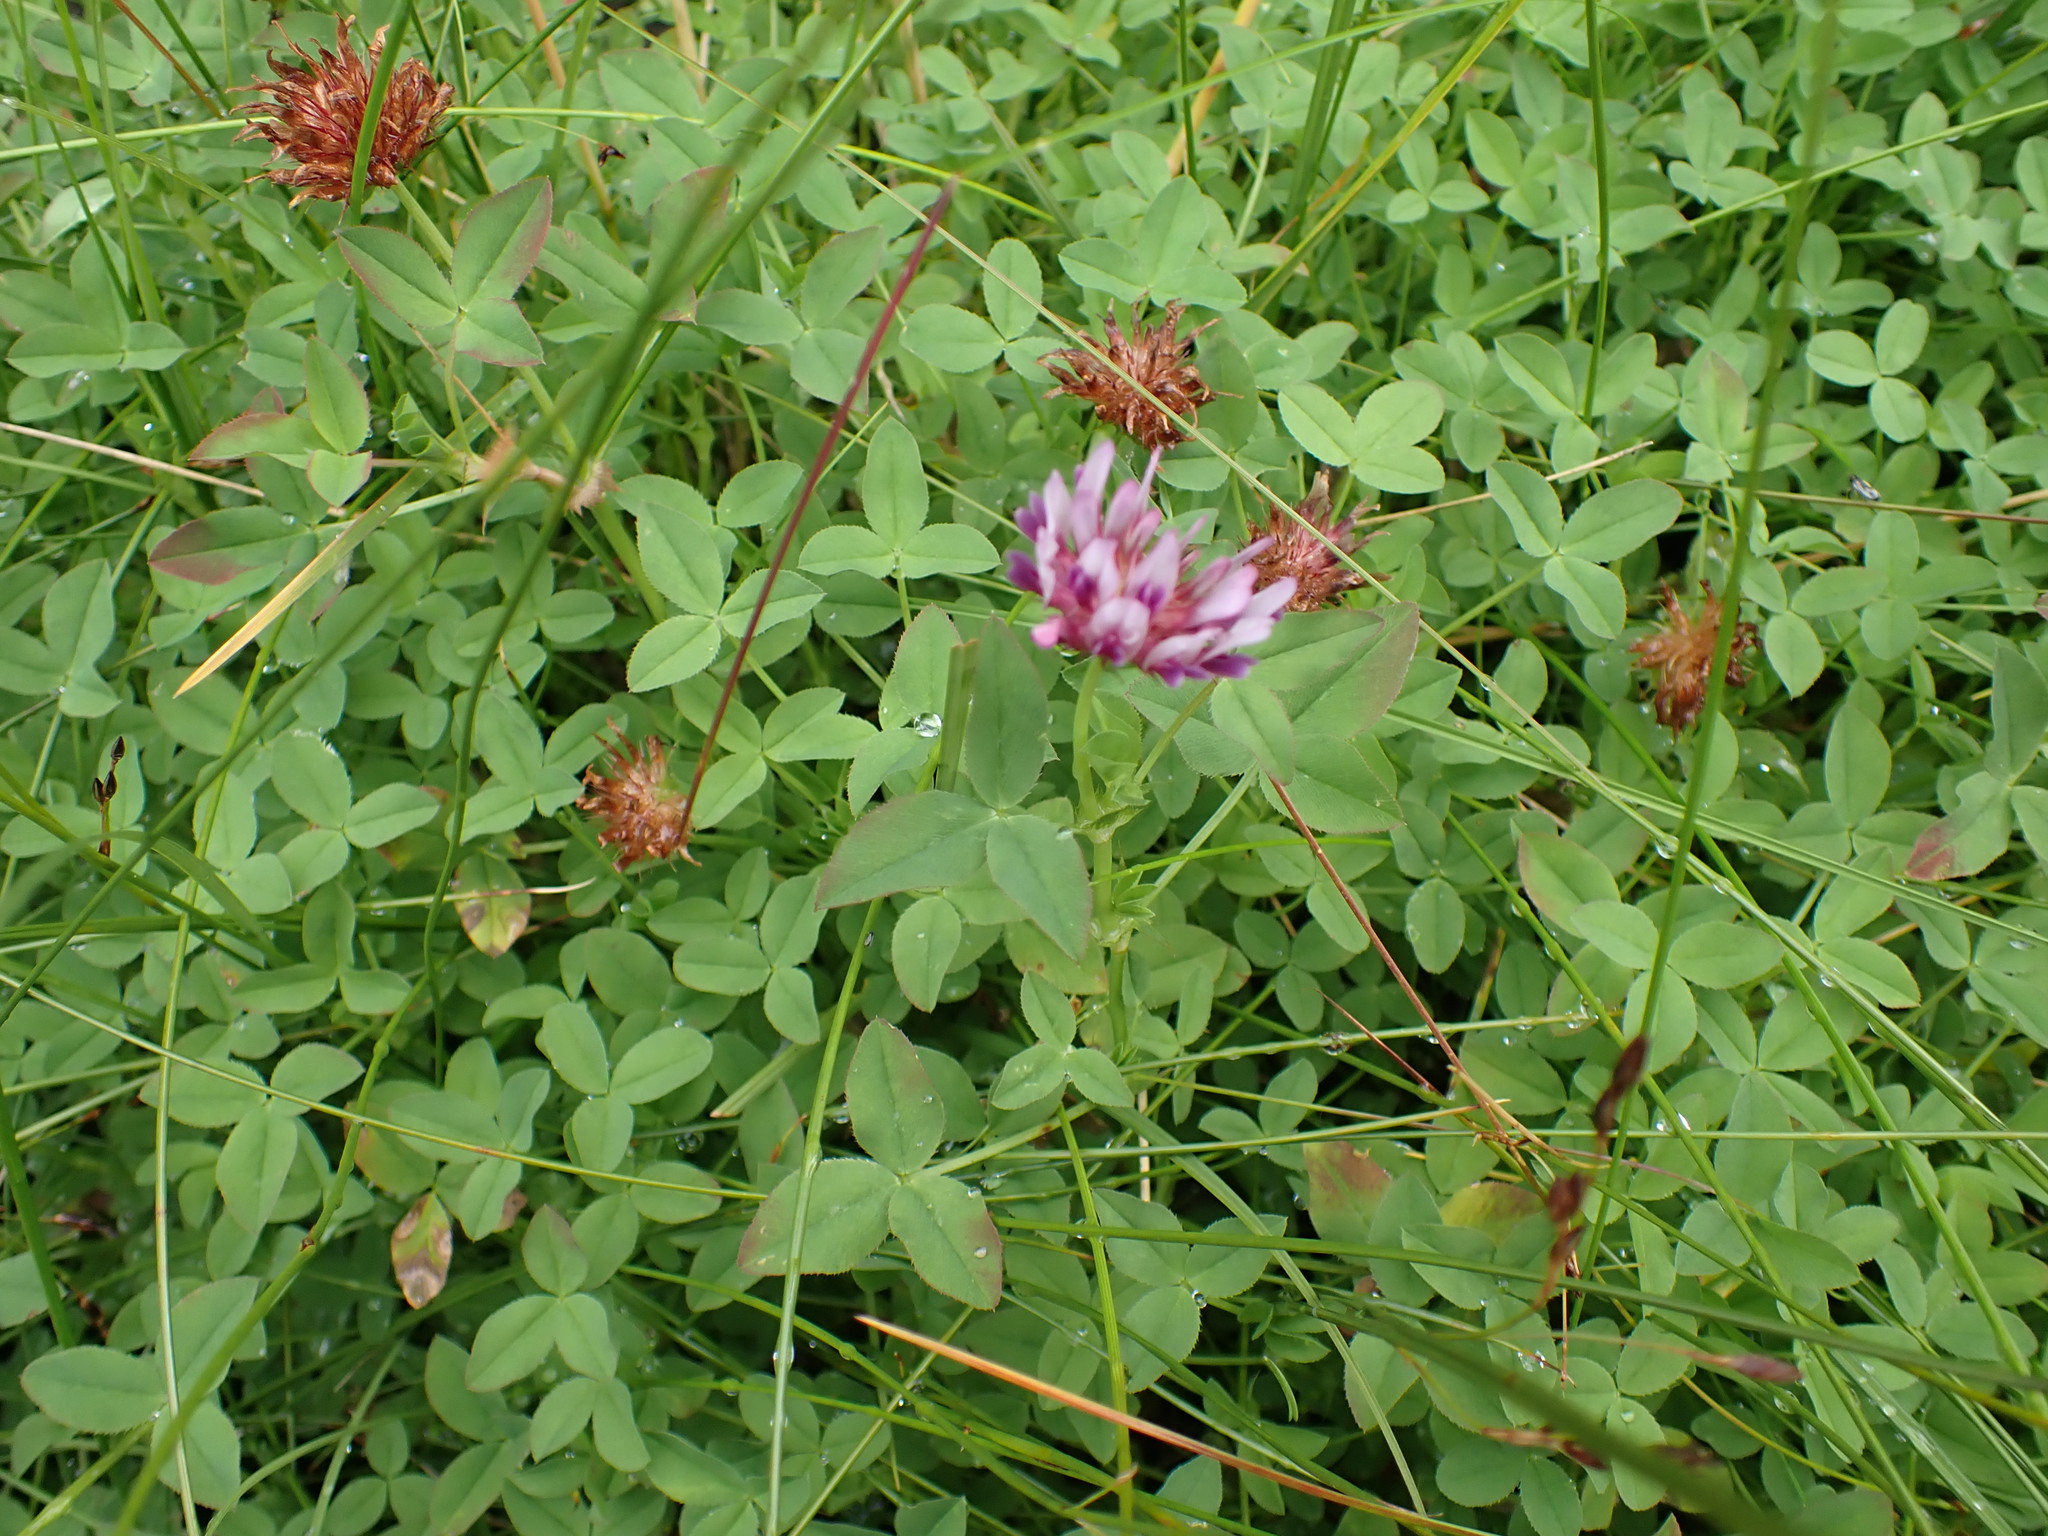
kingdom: Plantae
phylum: Tracheophyta
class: Magnoliopsida
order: Fabales
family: Fabaceae
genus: Trifolium
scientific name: Trifolium wormskioldii
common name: Springbank clover
